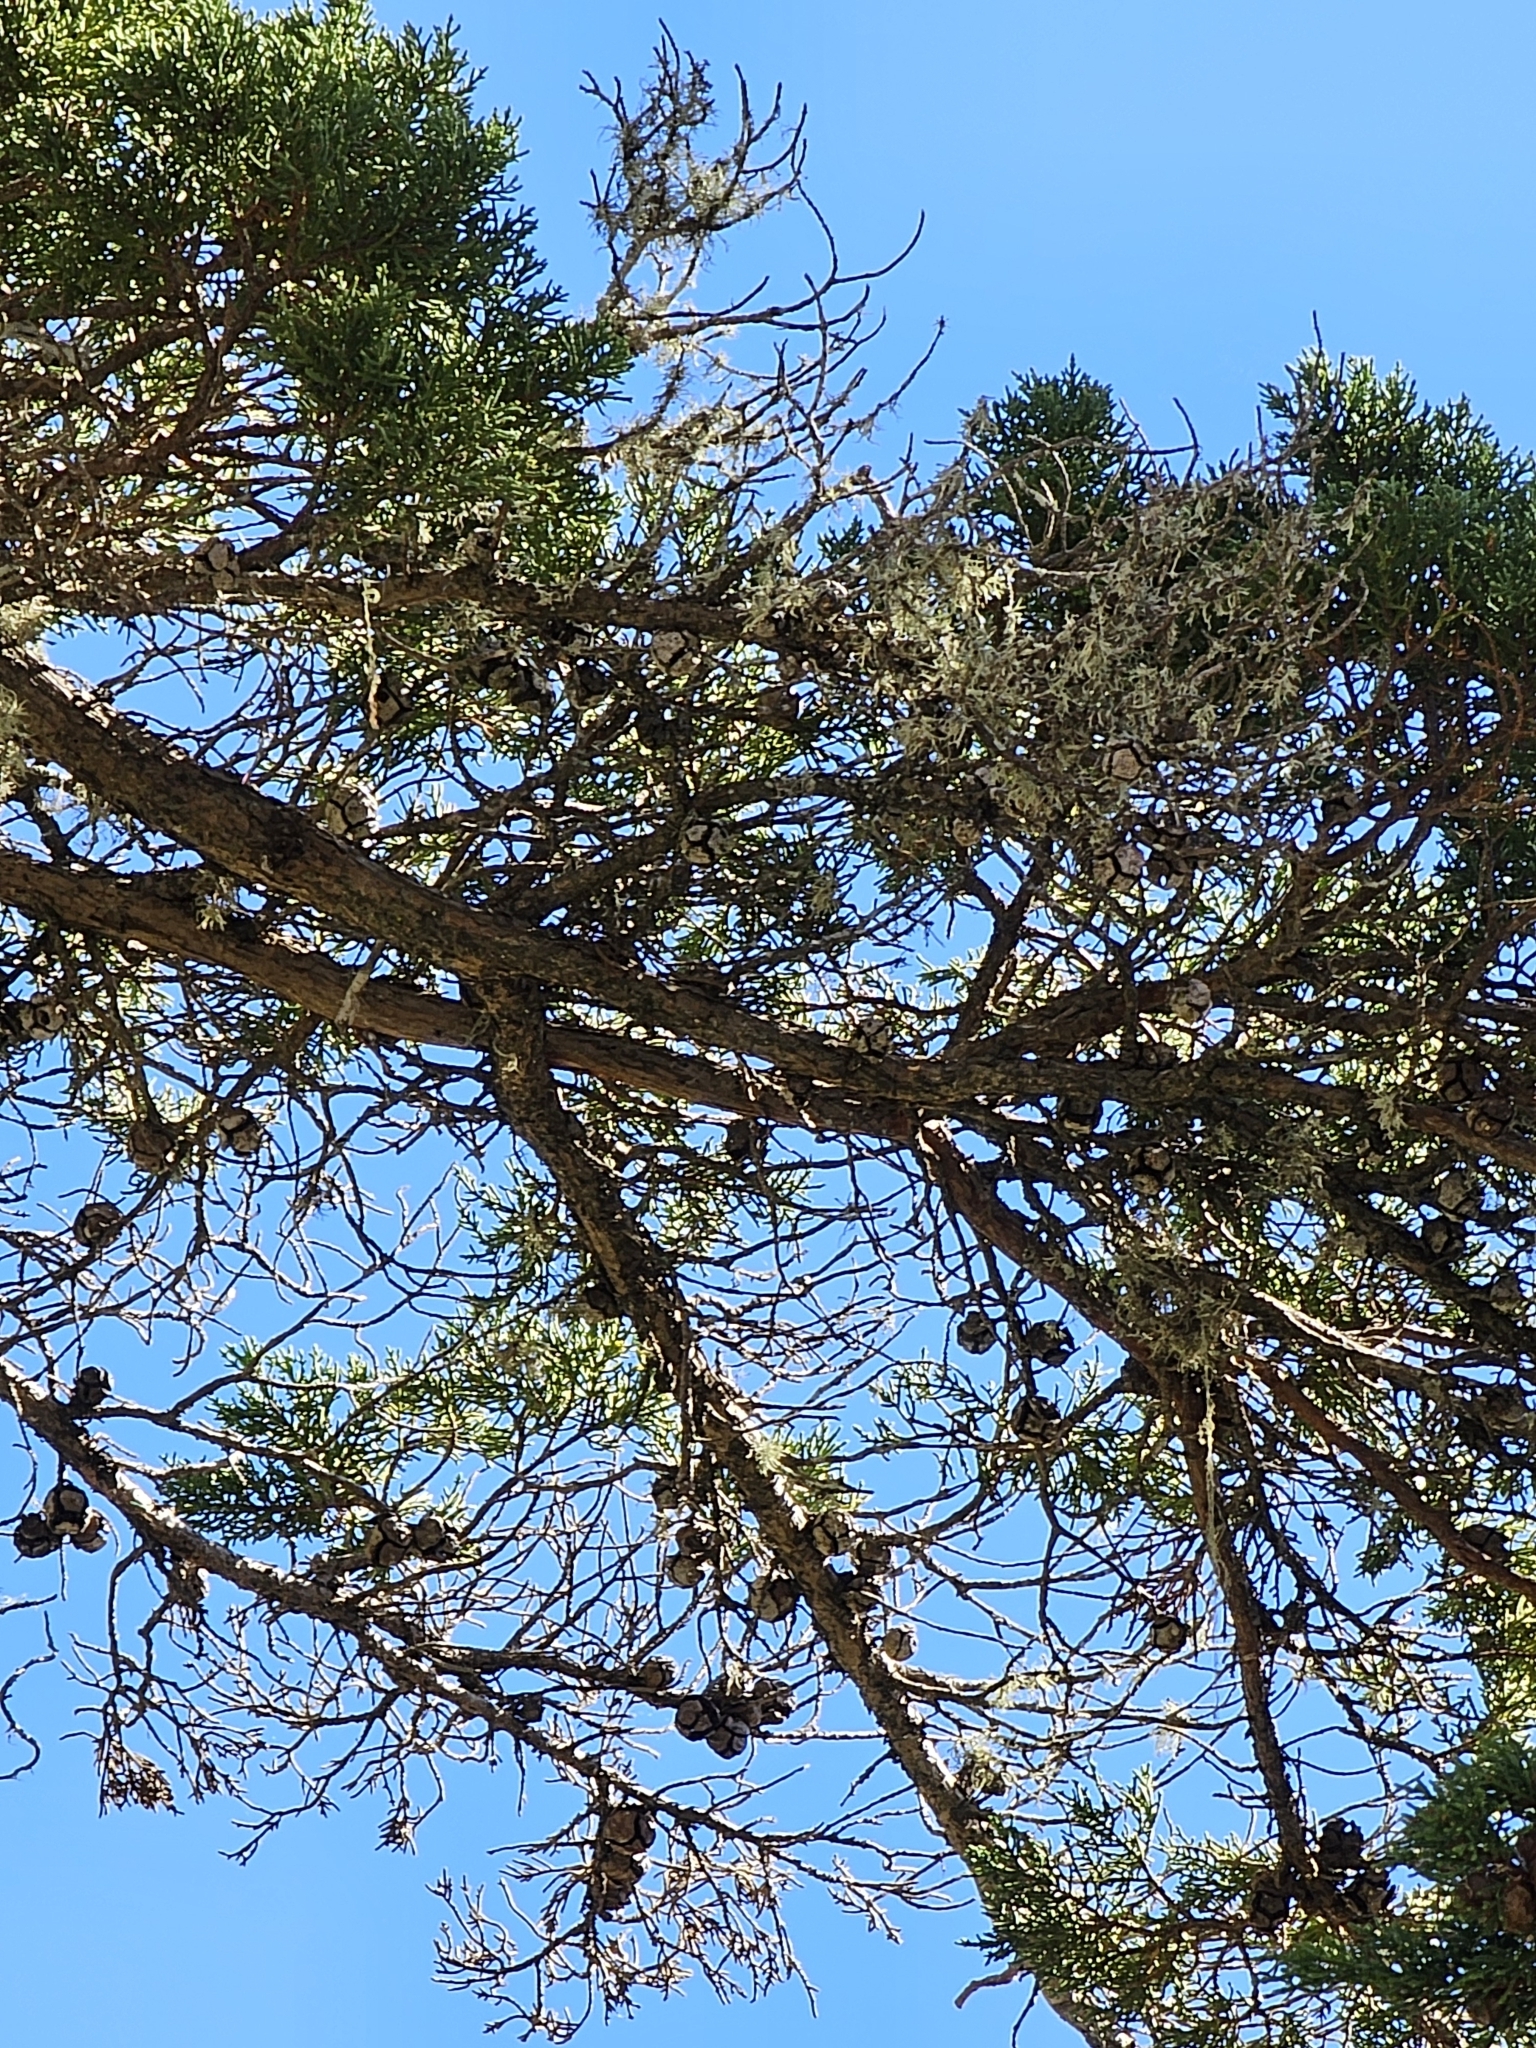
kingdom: Animalia
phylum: Chordata
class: Aves
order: Passeriformes
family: Parulidae
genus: Setophaga
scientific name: Setophaga townsendi
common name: Townsend's warbler
